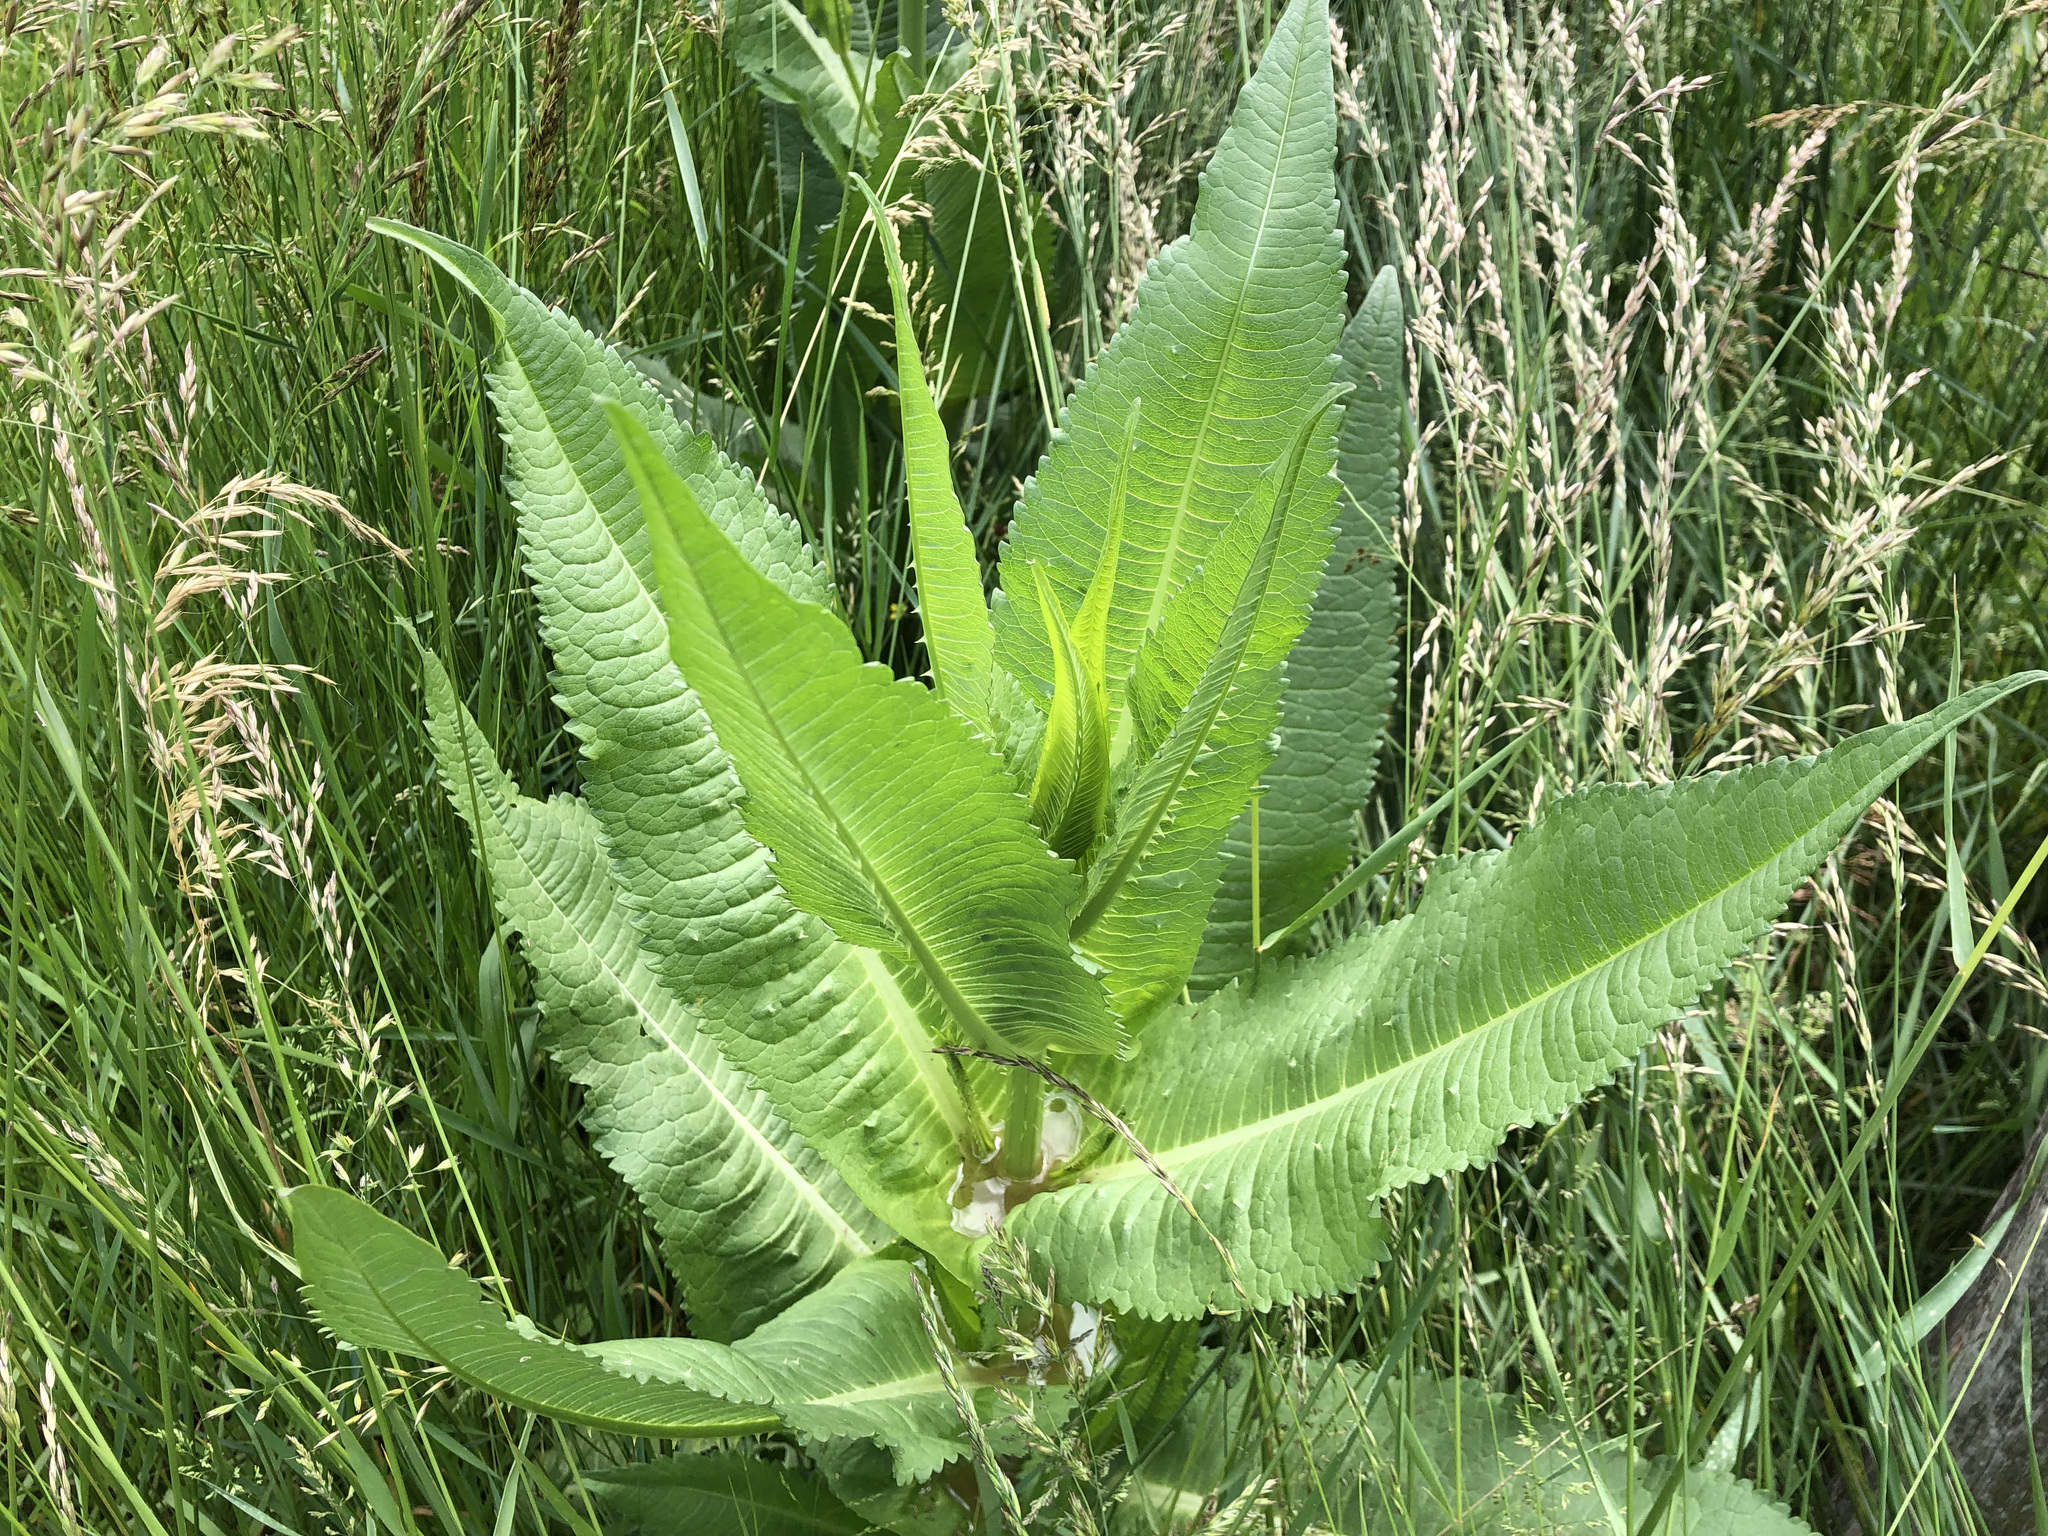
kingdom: Plantae
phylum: Tracheophyta
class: Magnoliopsida
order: Dipsacales
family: Caprifoliaceae
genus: Dipsacus
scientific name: Dipsacus fullonum
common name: Teasel
